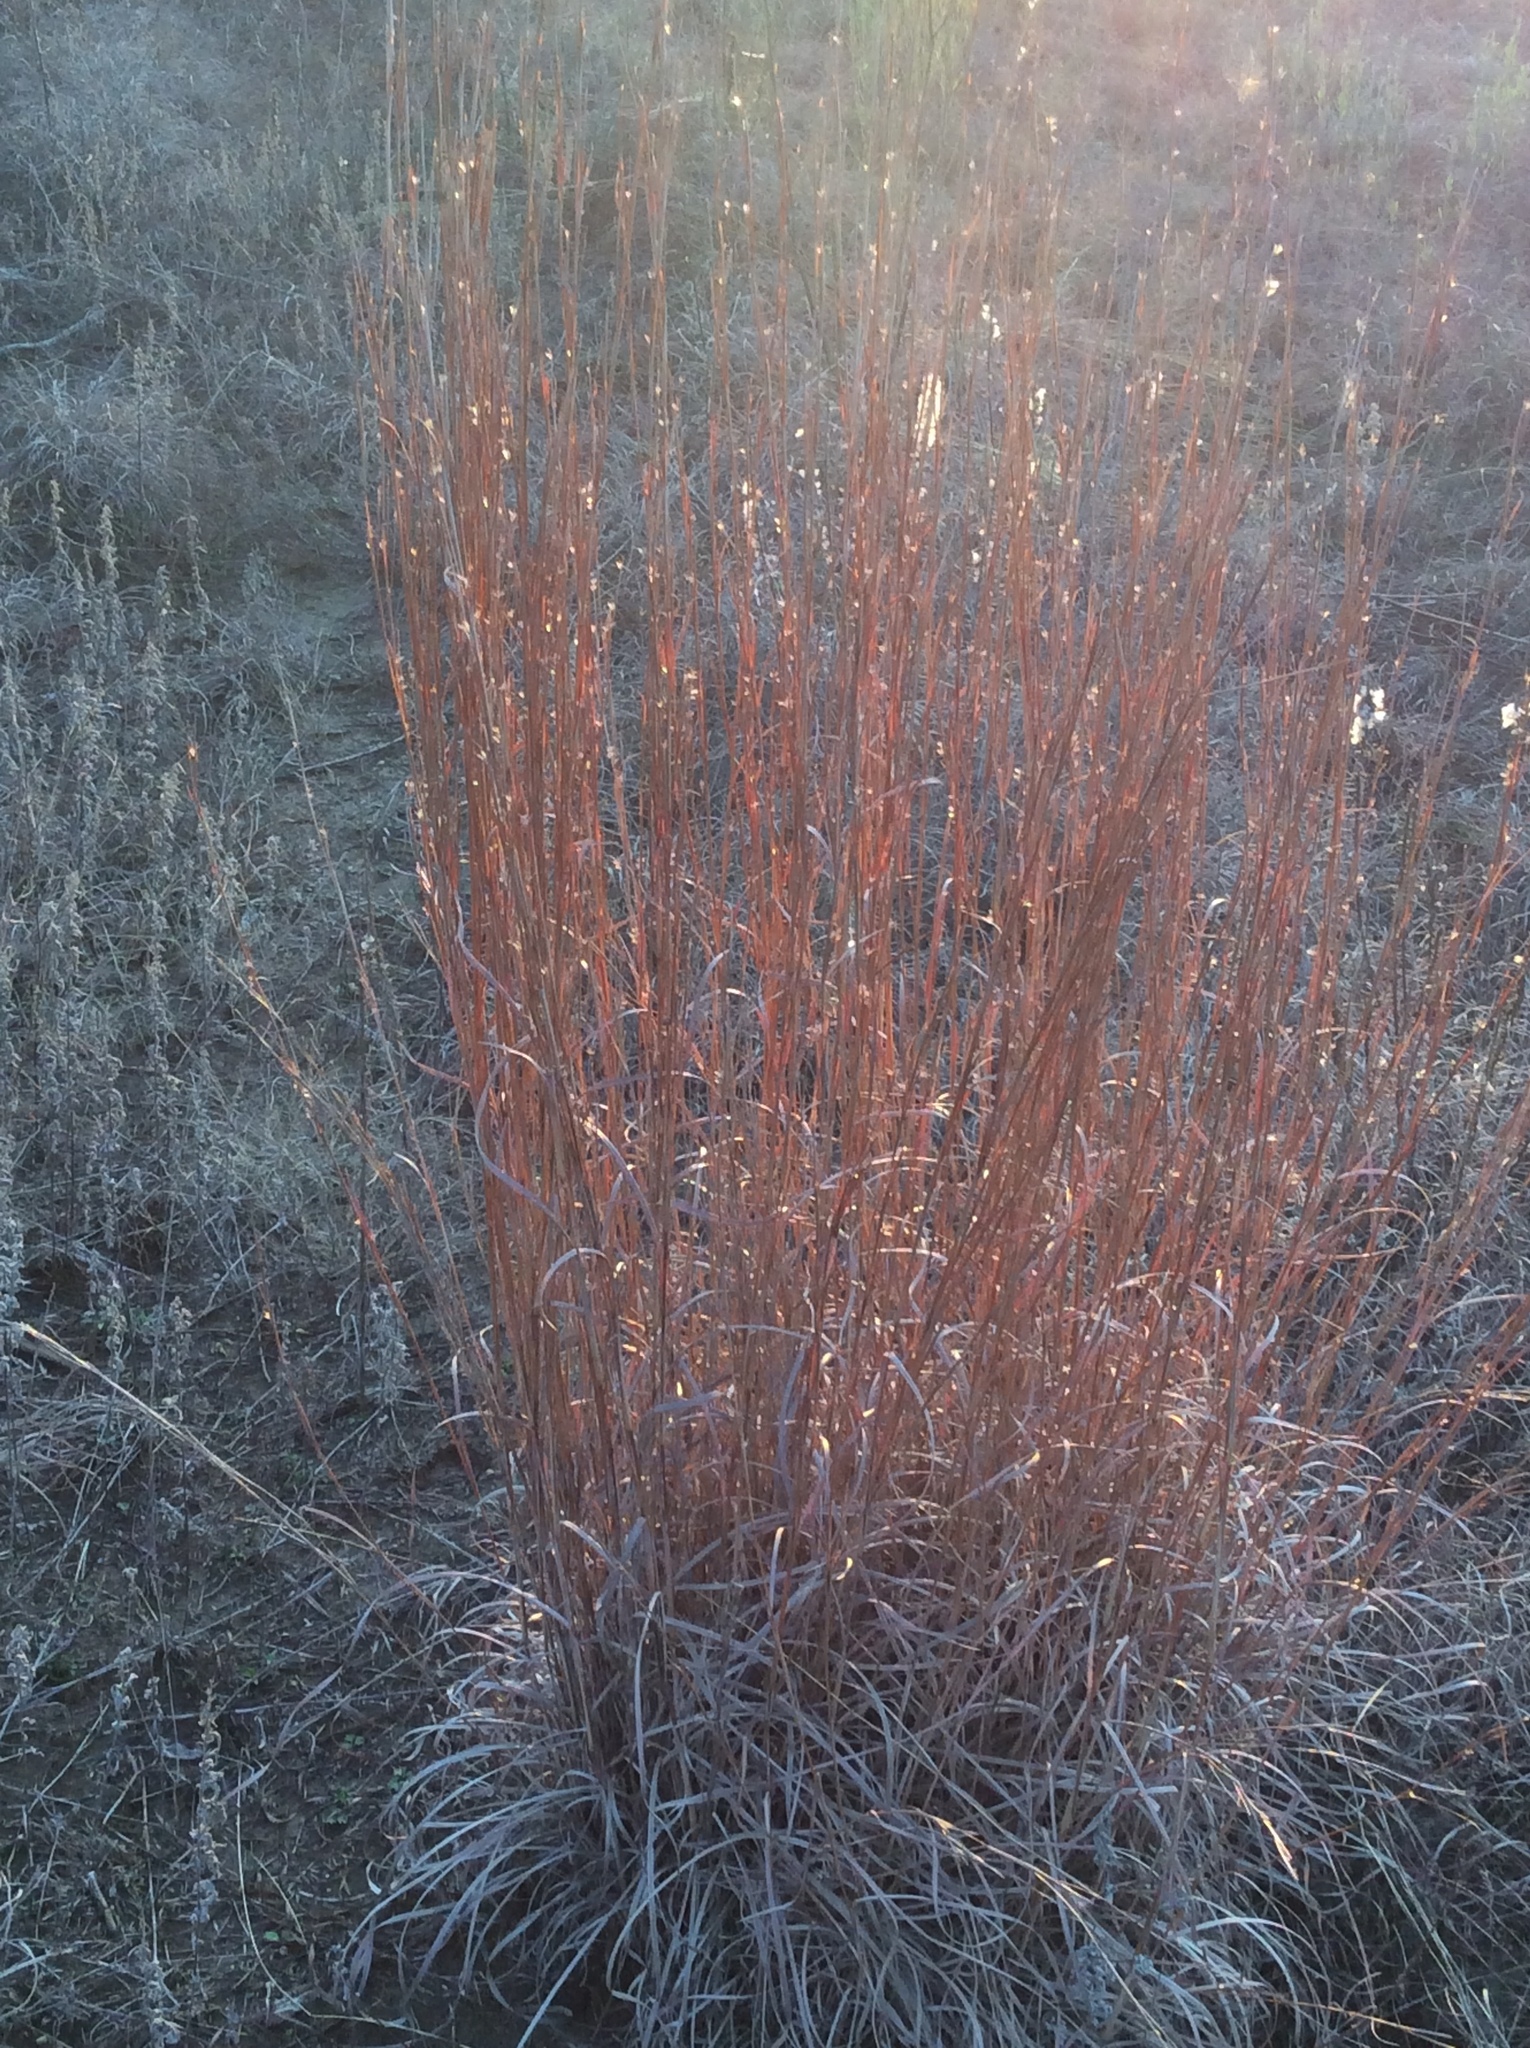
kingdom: Plantae
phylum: Tracheophyta
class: Liliopsida
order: Poales
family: Poaceae
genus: Schizachyrium
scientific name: Schizachyrium scoparium
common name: Little bluestem
